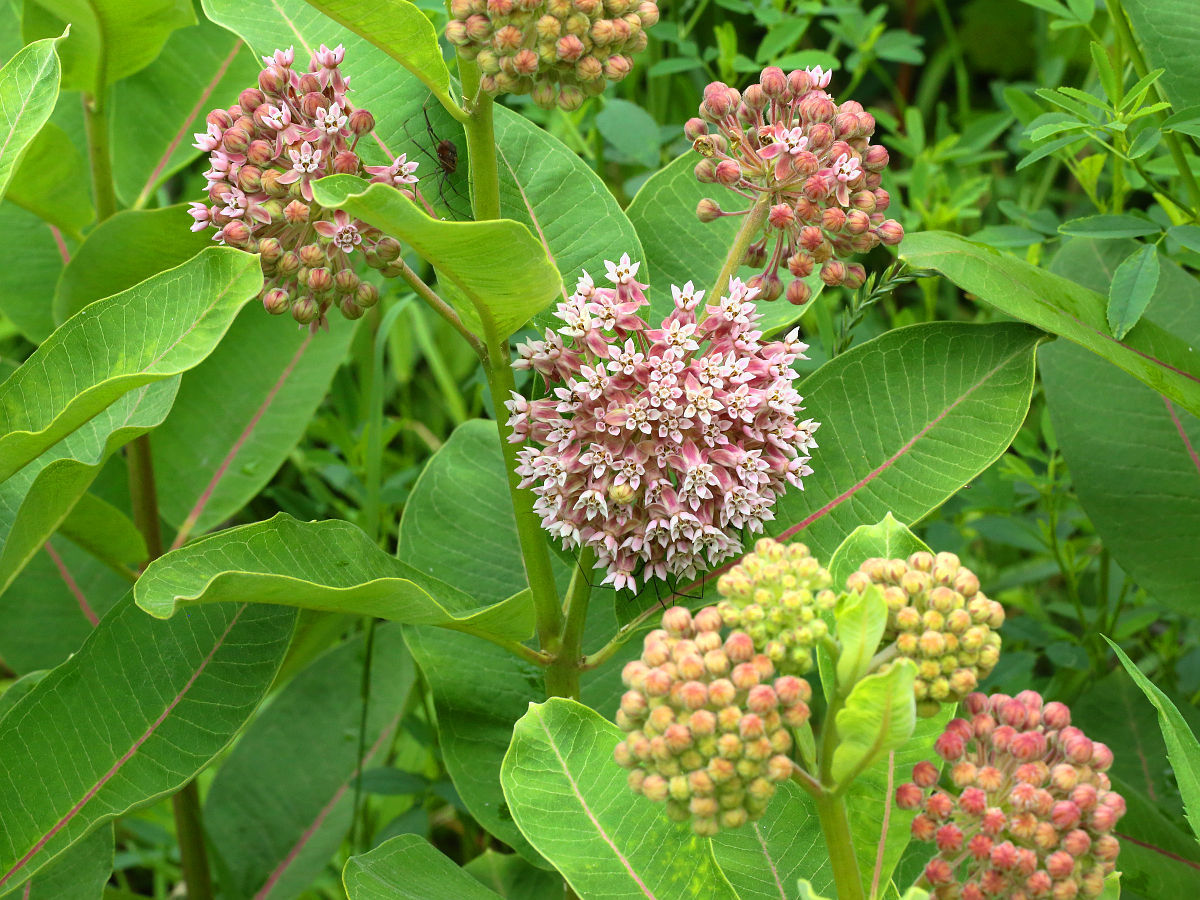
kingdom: Plantae
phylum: Tracheophyta
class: Magnoliopsida
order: Gentianales
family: Apocynaceae
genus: Asclepias
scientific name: Asclepias syriaca
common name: Common milkweed
